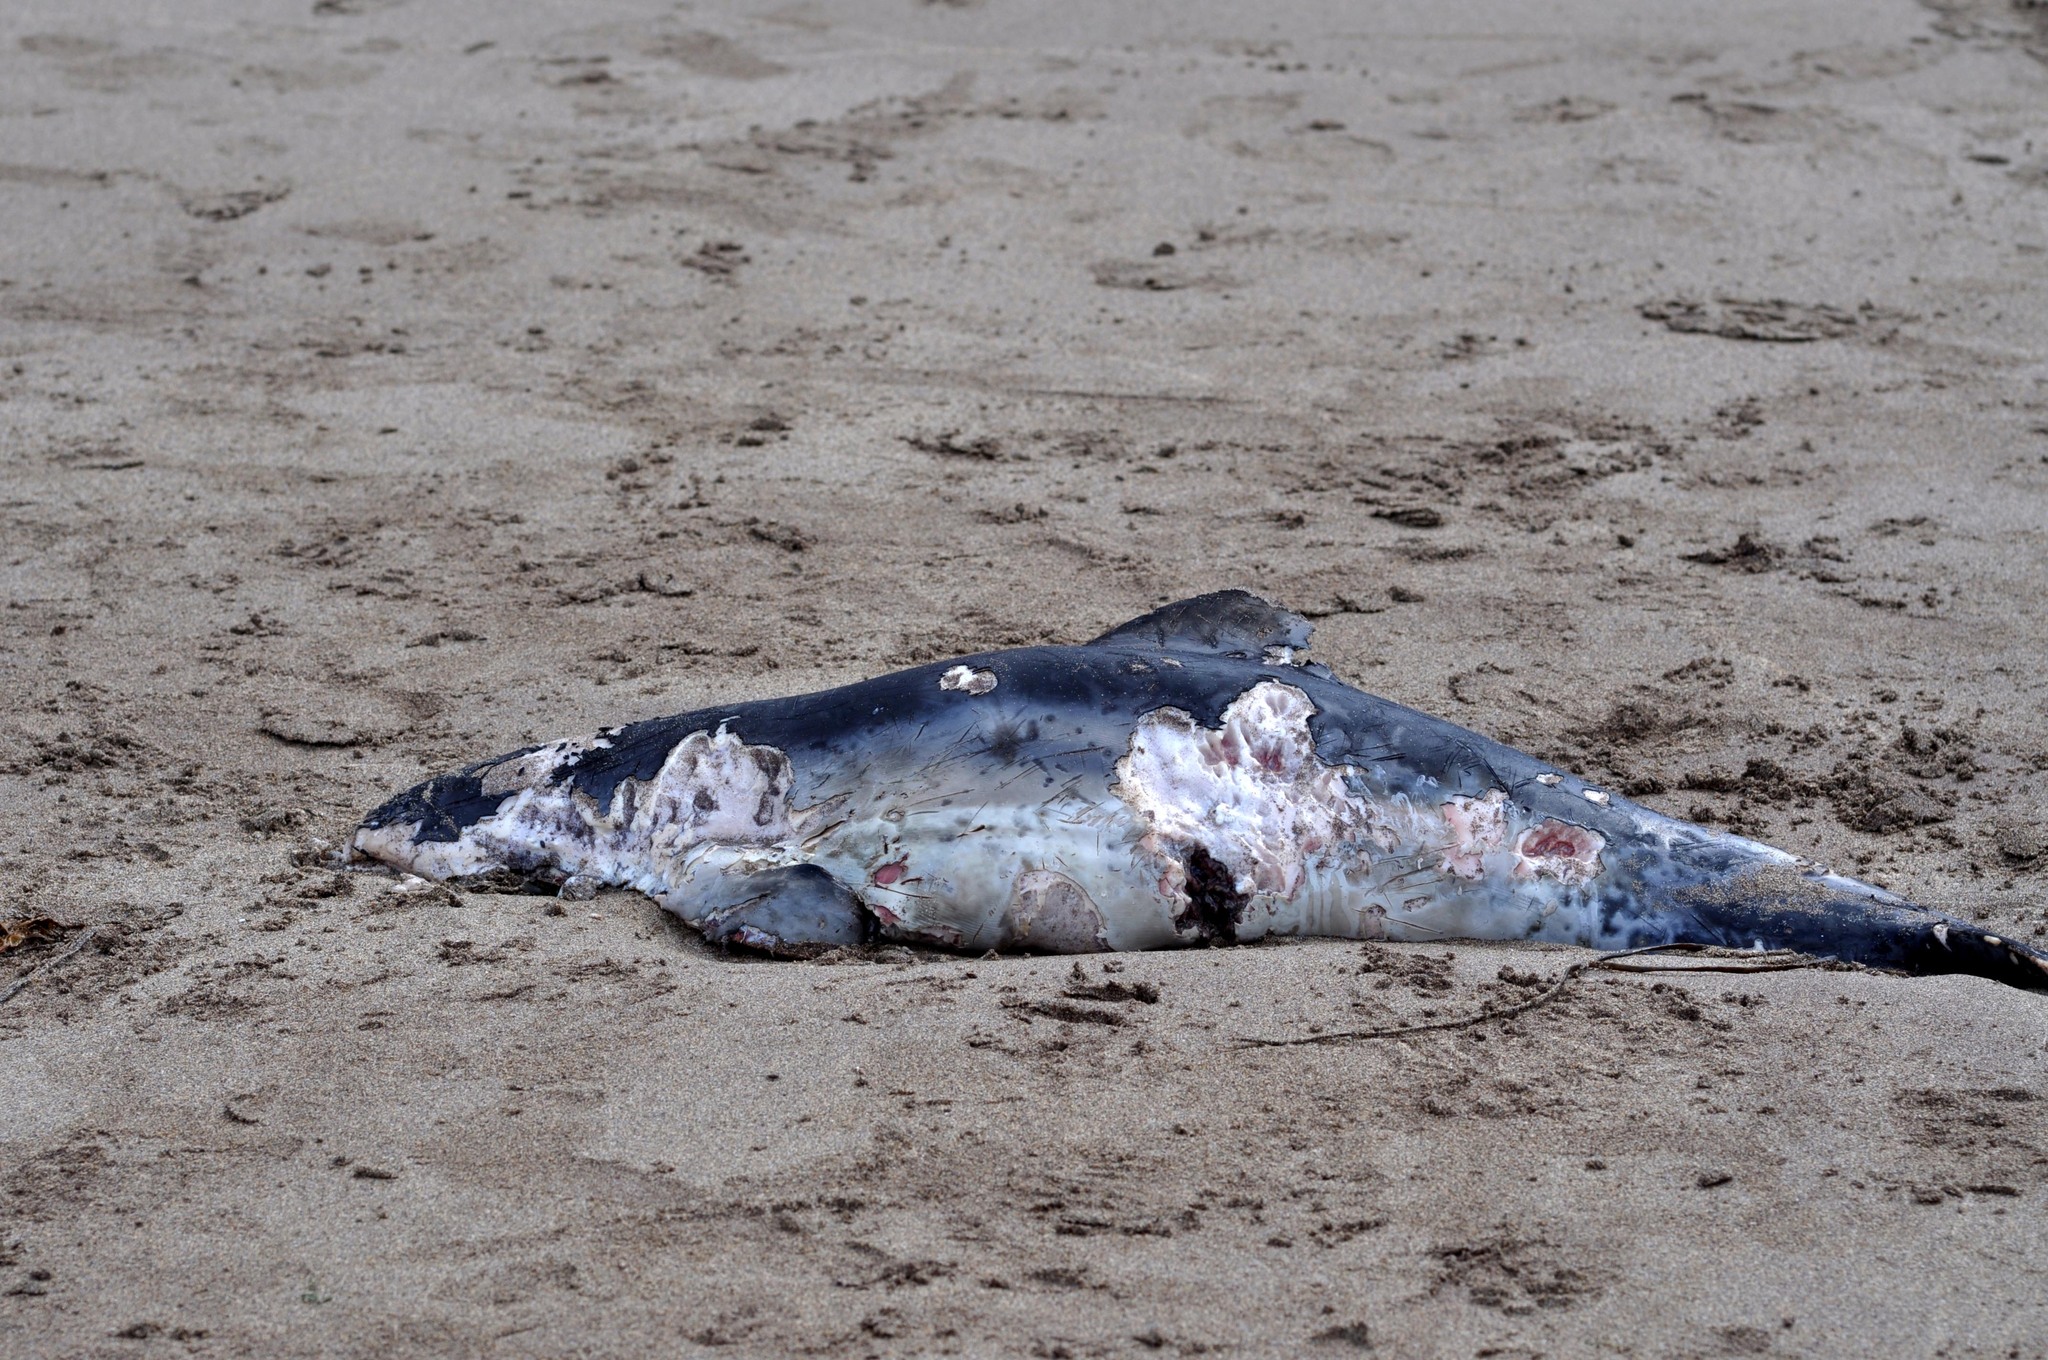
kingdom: Animalia
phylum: Chordata
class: Mammalia
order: Cetacea
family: Delphinidae
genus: Delphinus
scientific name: Delphinus delphis
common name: Common dolphin
